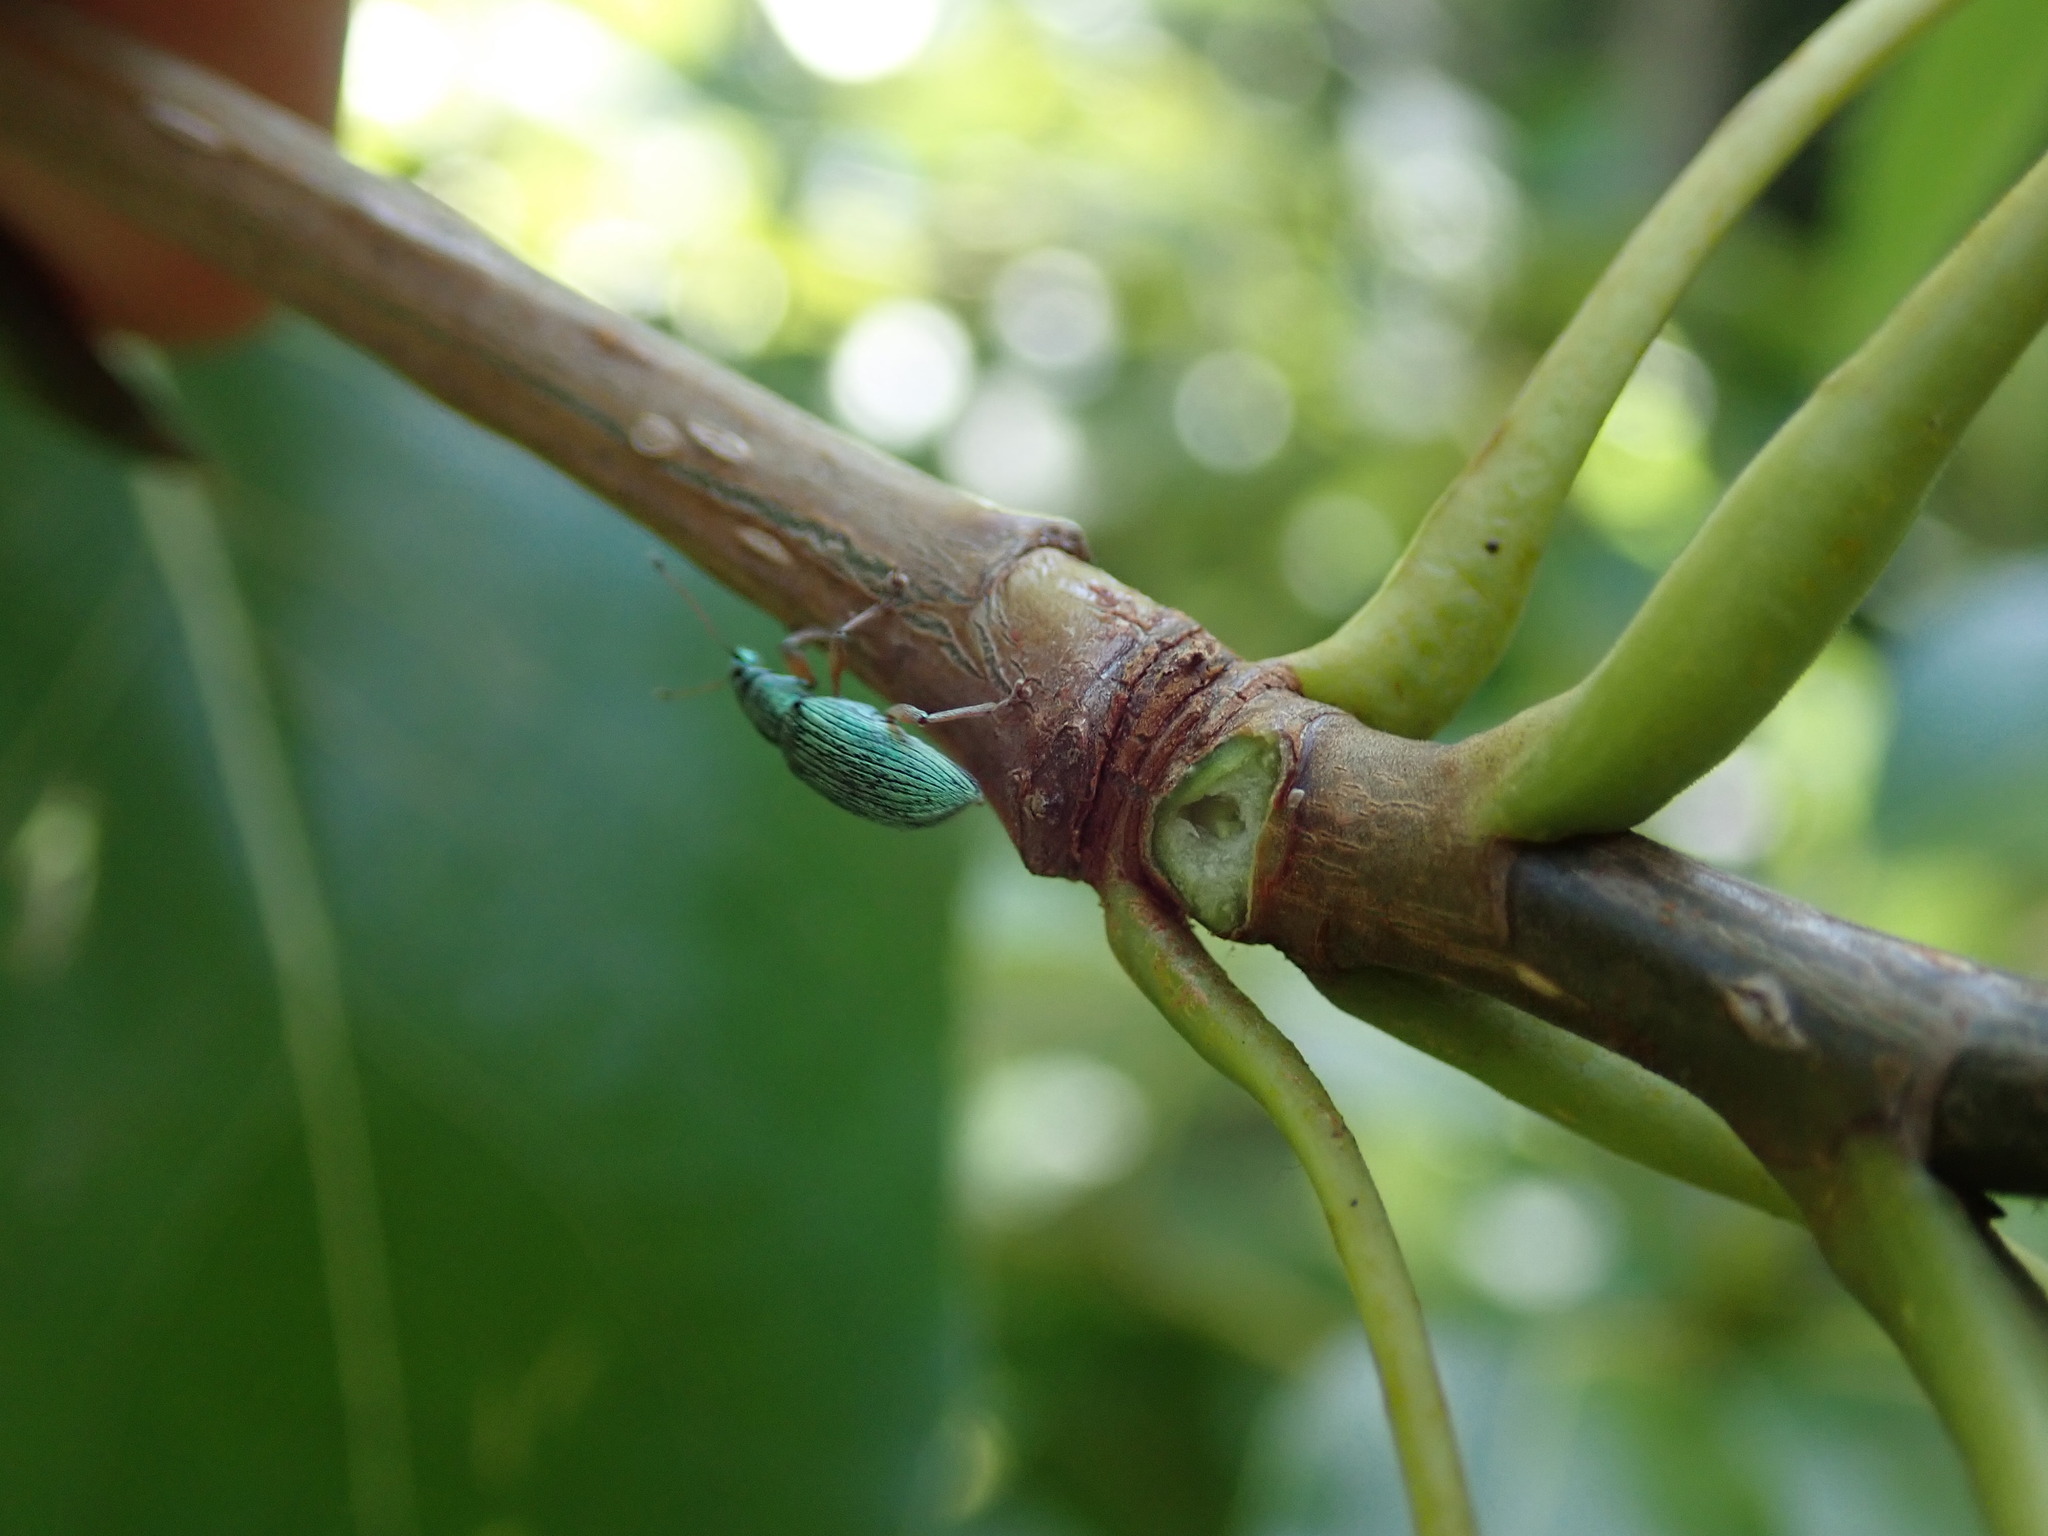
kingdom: Animalia
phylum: Arthropoda
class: Insecta
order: Coleoptera
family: Curculionidae
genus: Polydrusus
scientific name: Polydrusus formosus
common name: Weevil
